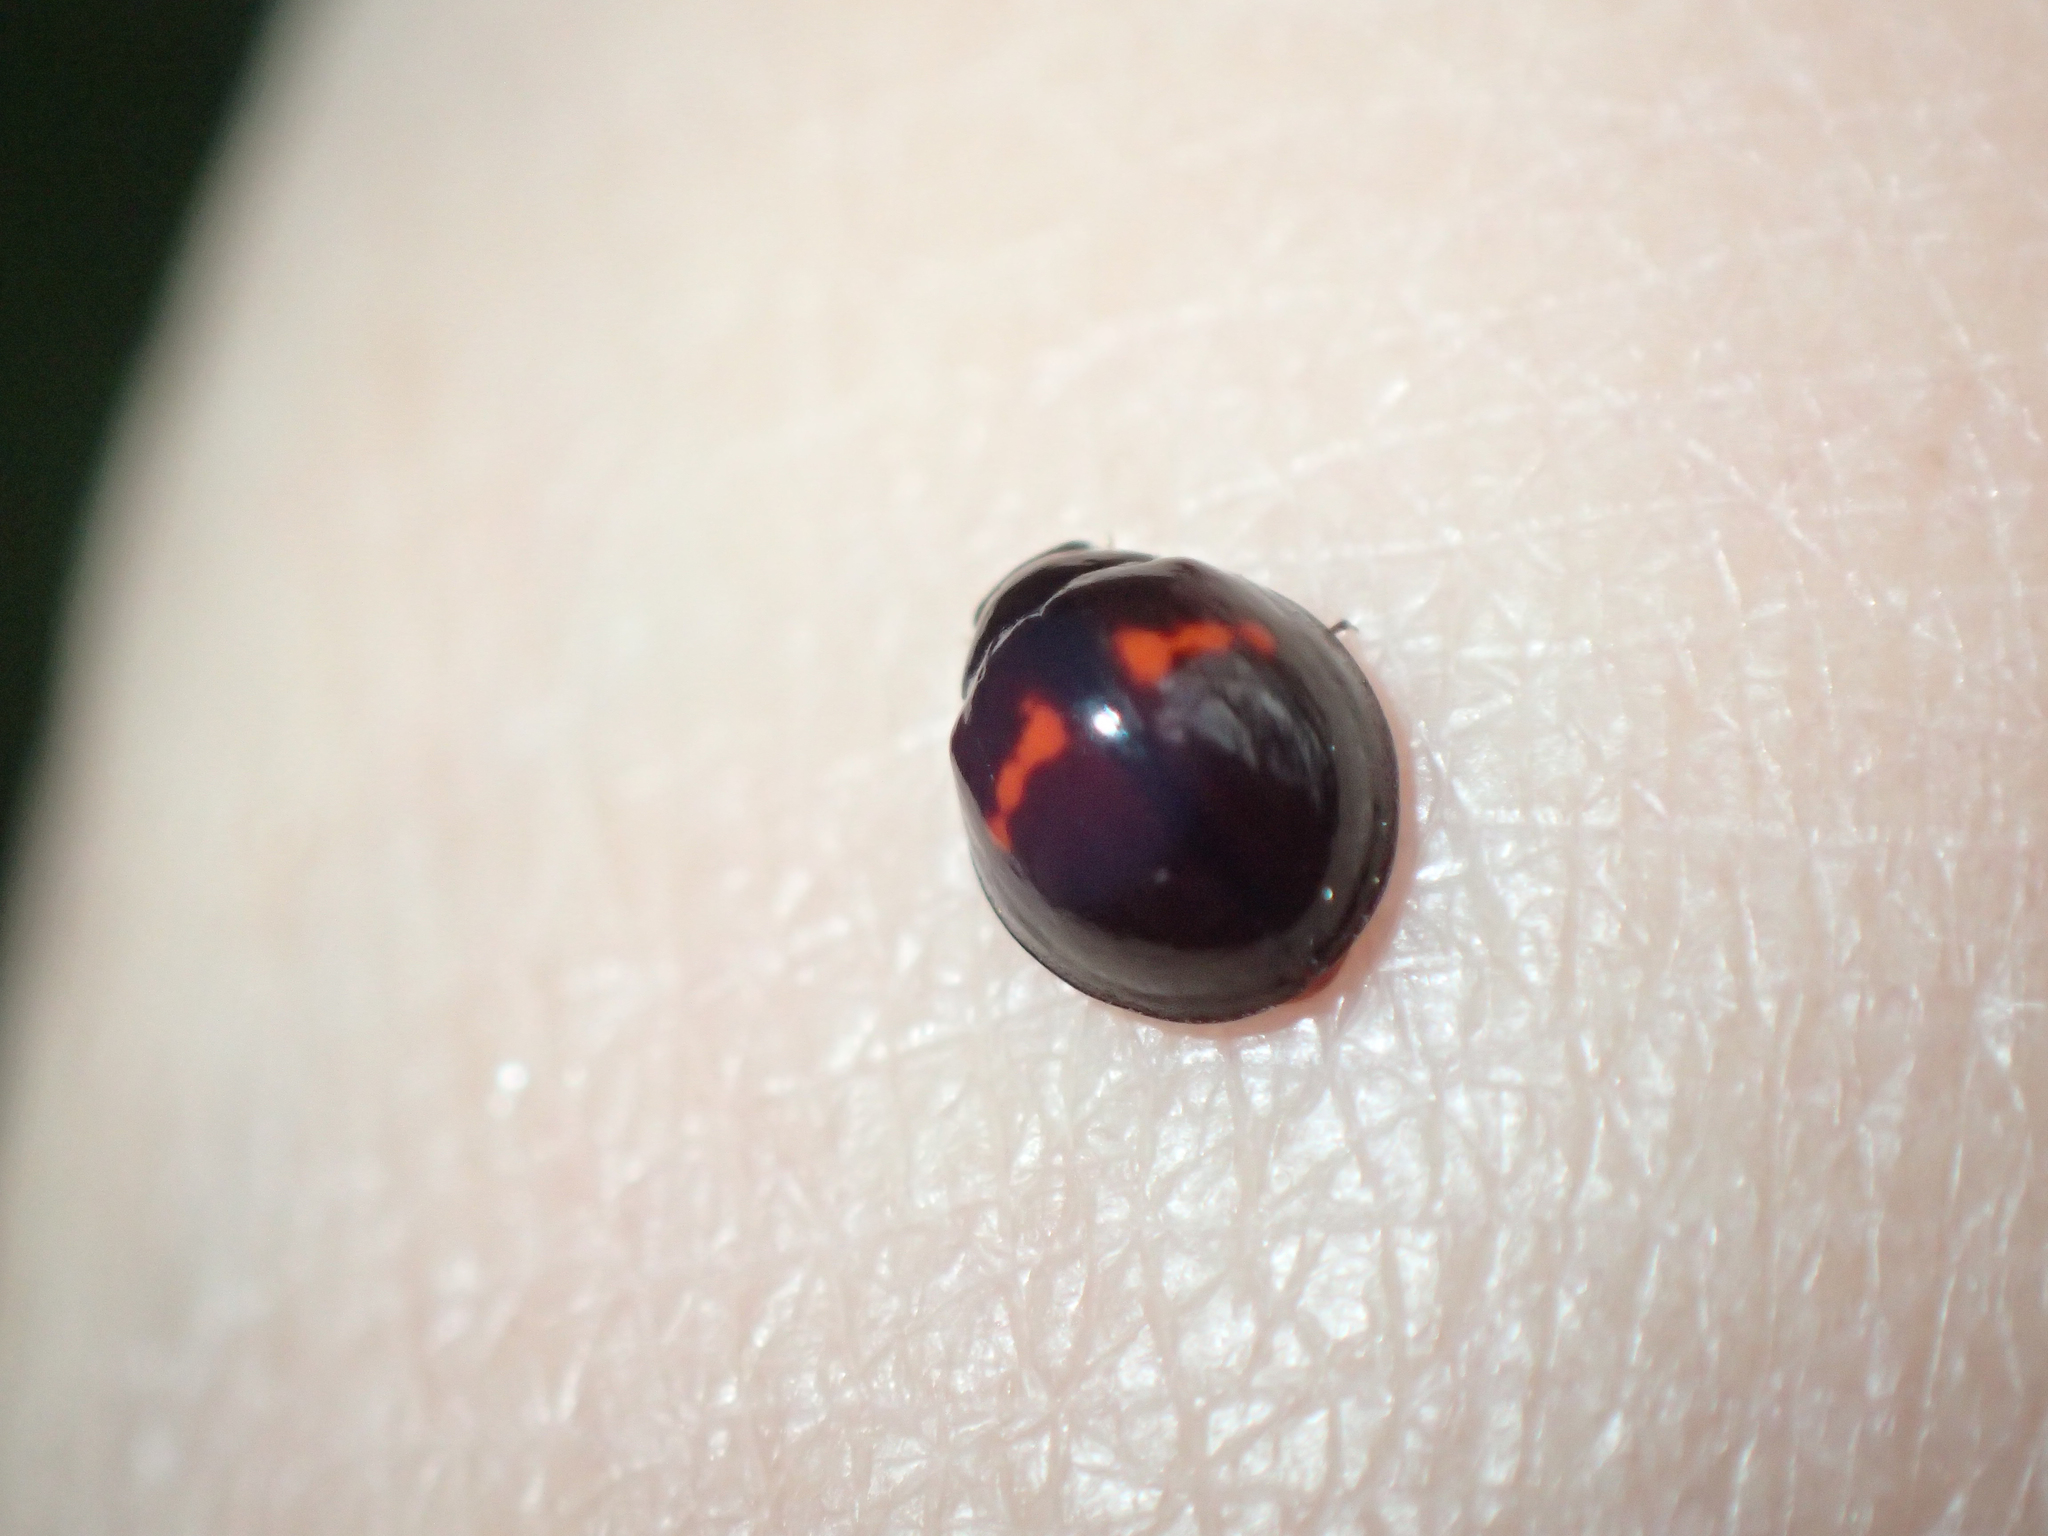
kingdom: Animalia
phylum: Arthropoda
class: Insecta
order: Coleoptera
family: Coccinellidae
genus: Chilocorus
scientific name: Chilocorus bipustulatus
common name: Heather ladybird
